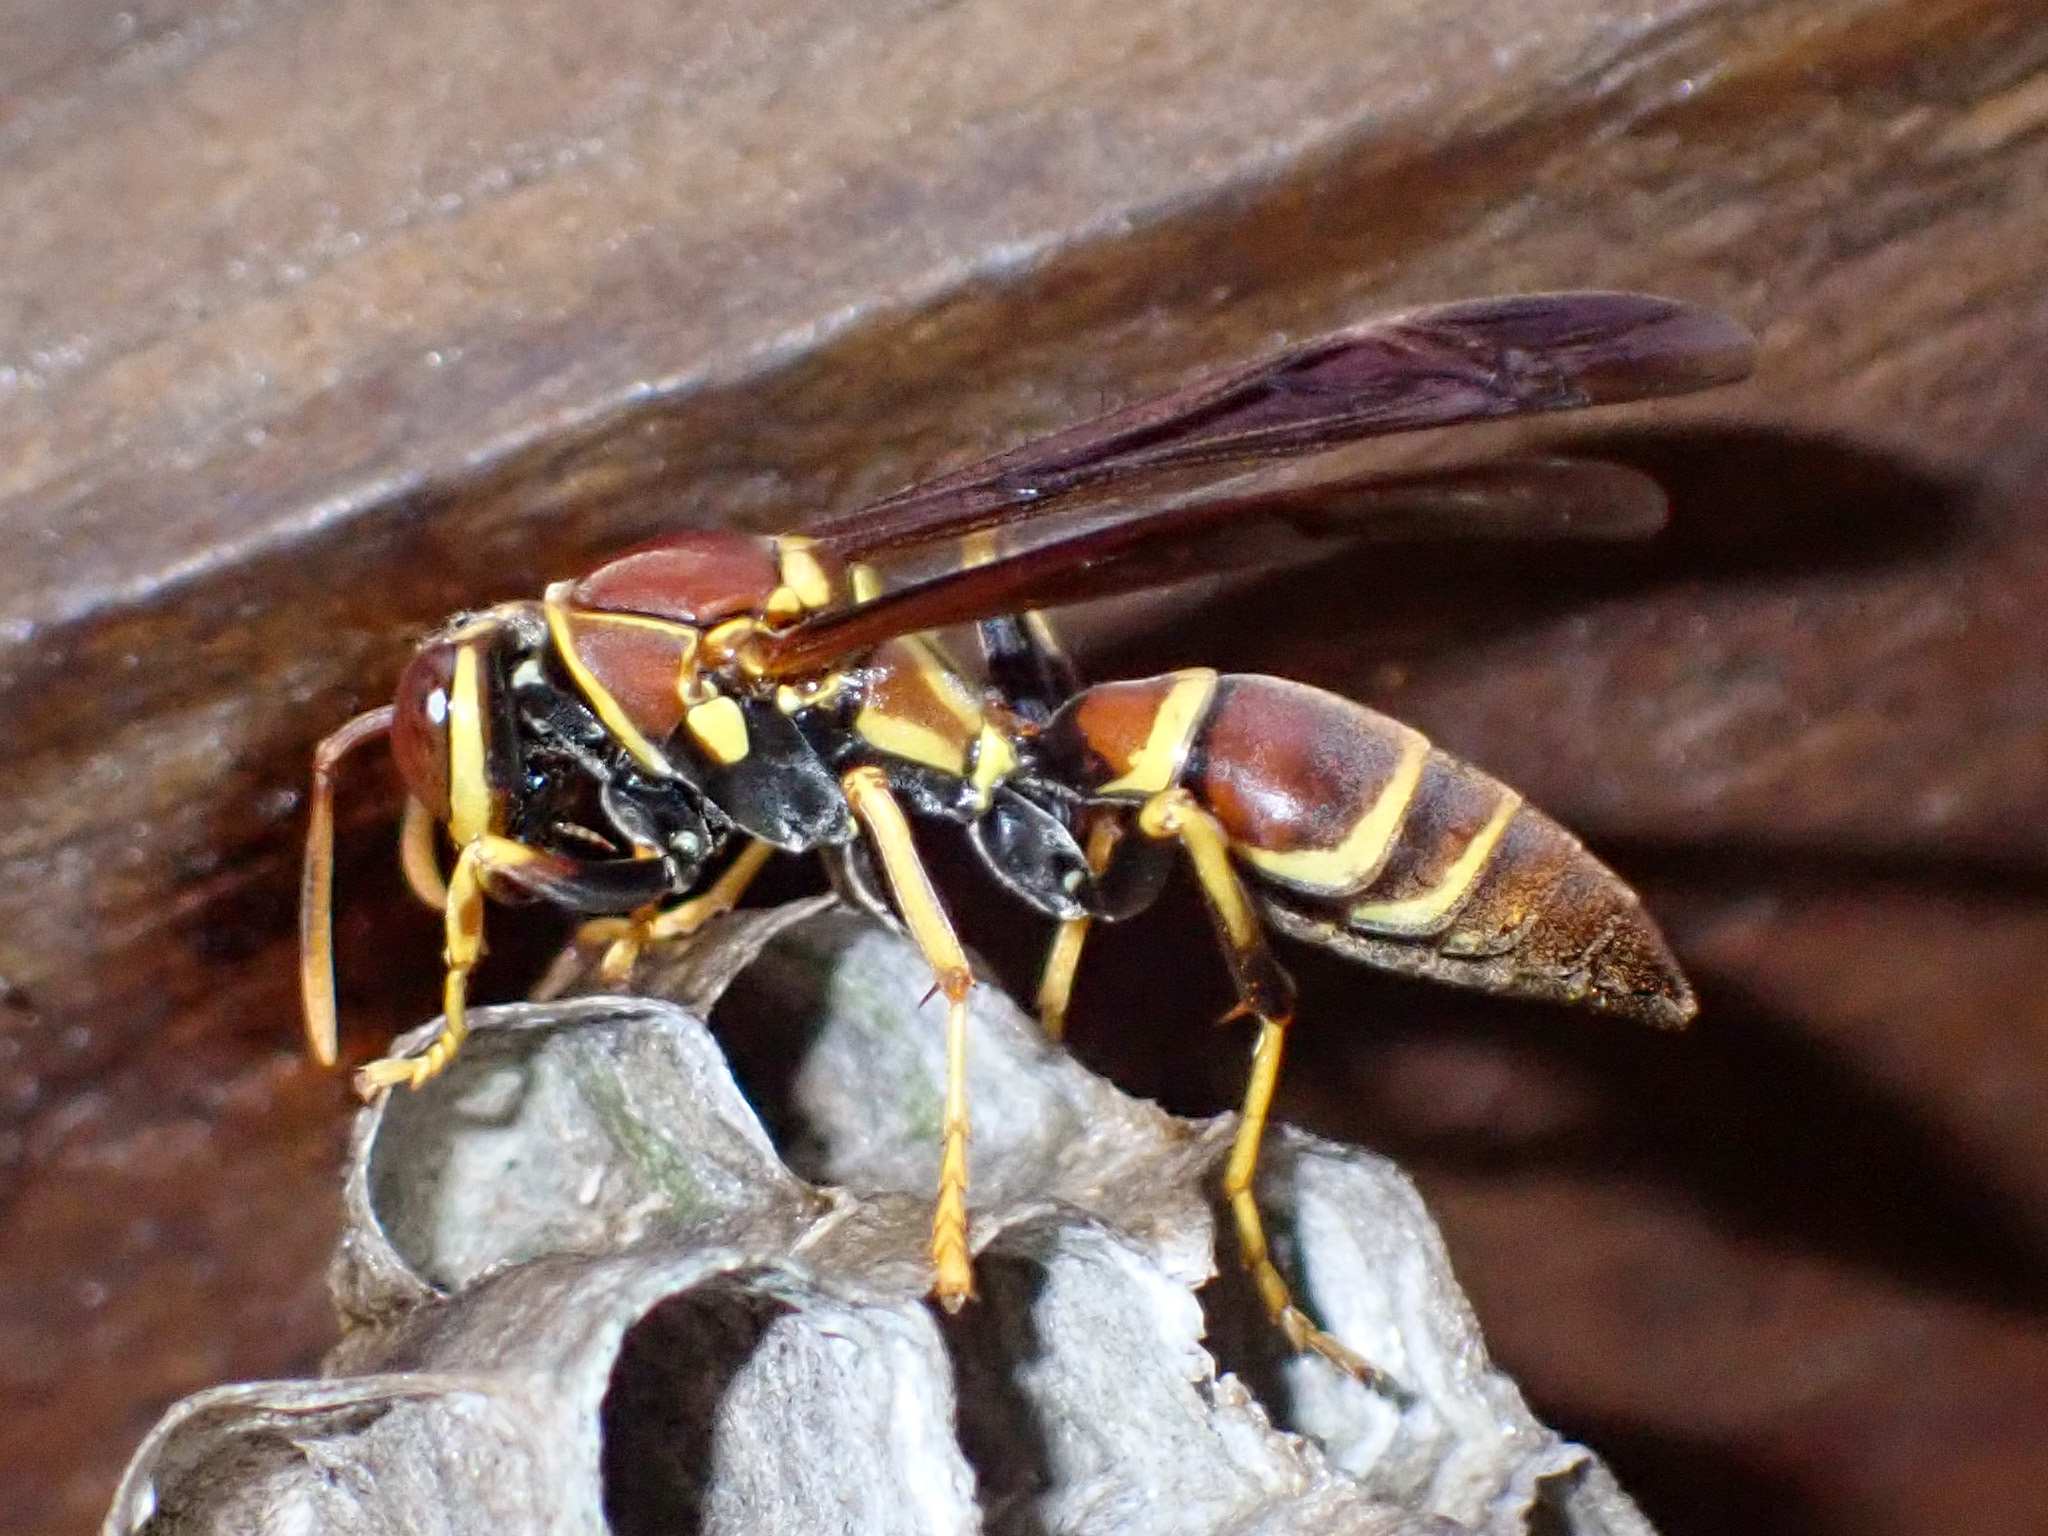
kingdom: Animalia
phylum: Arthropoda
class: Insecta
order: Hymenoptera
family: Eumenidae
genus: Polistes
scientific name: Polistes instabilis
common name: Unstable paper wasp
